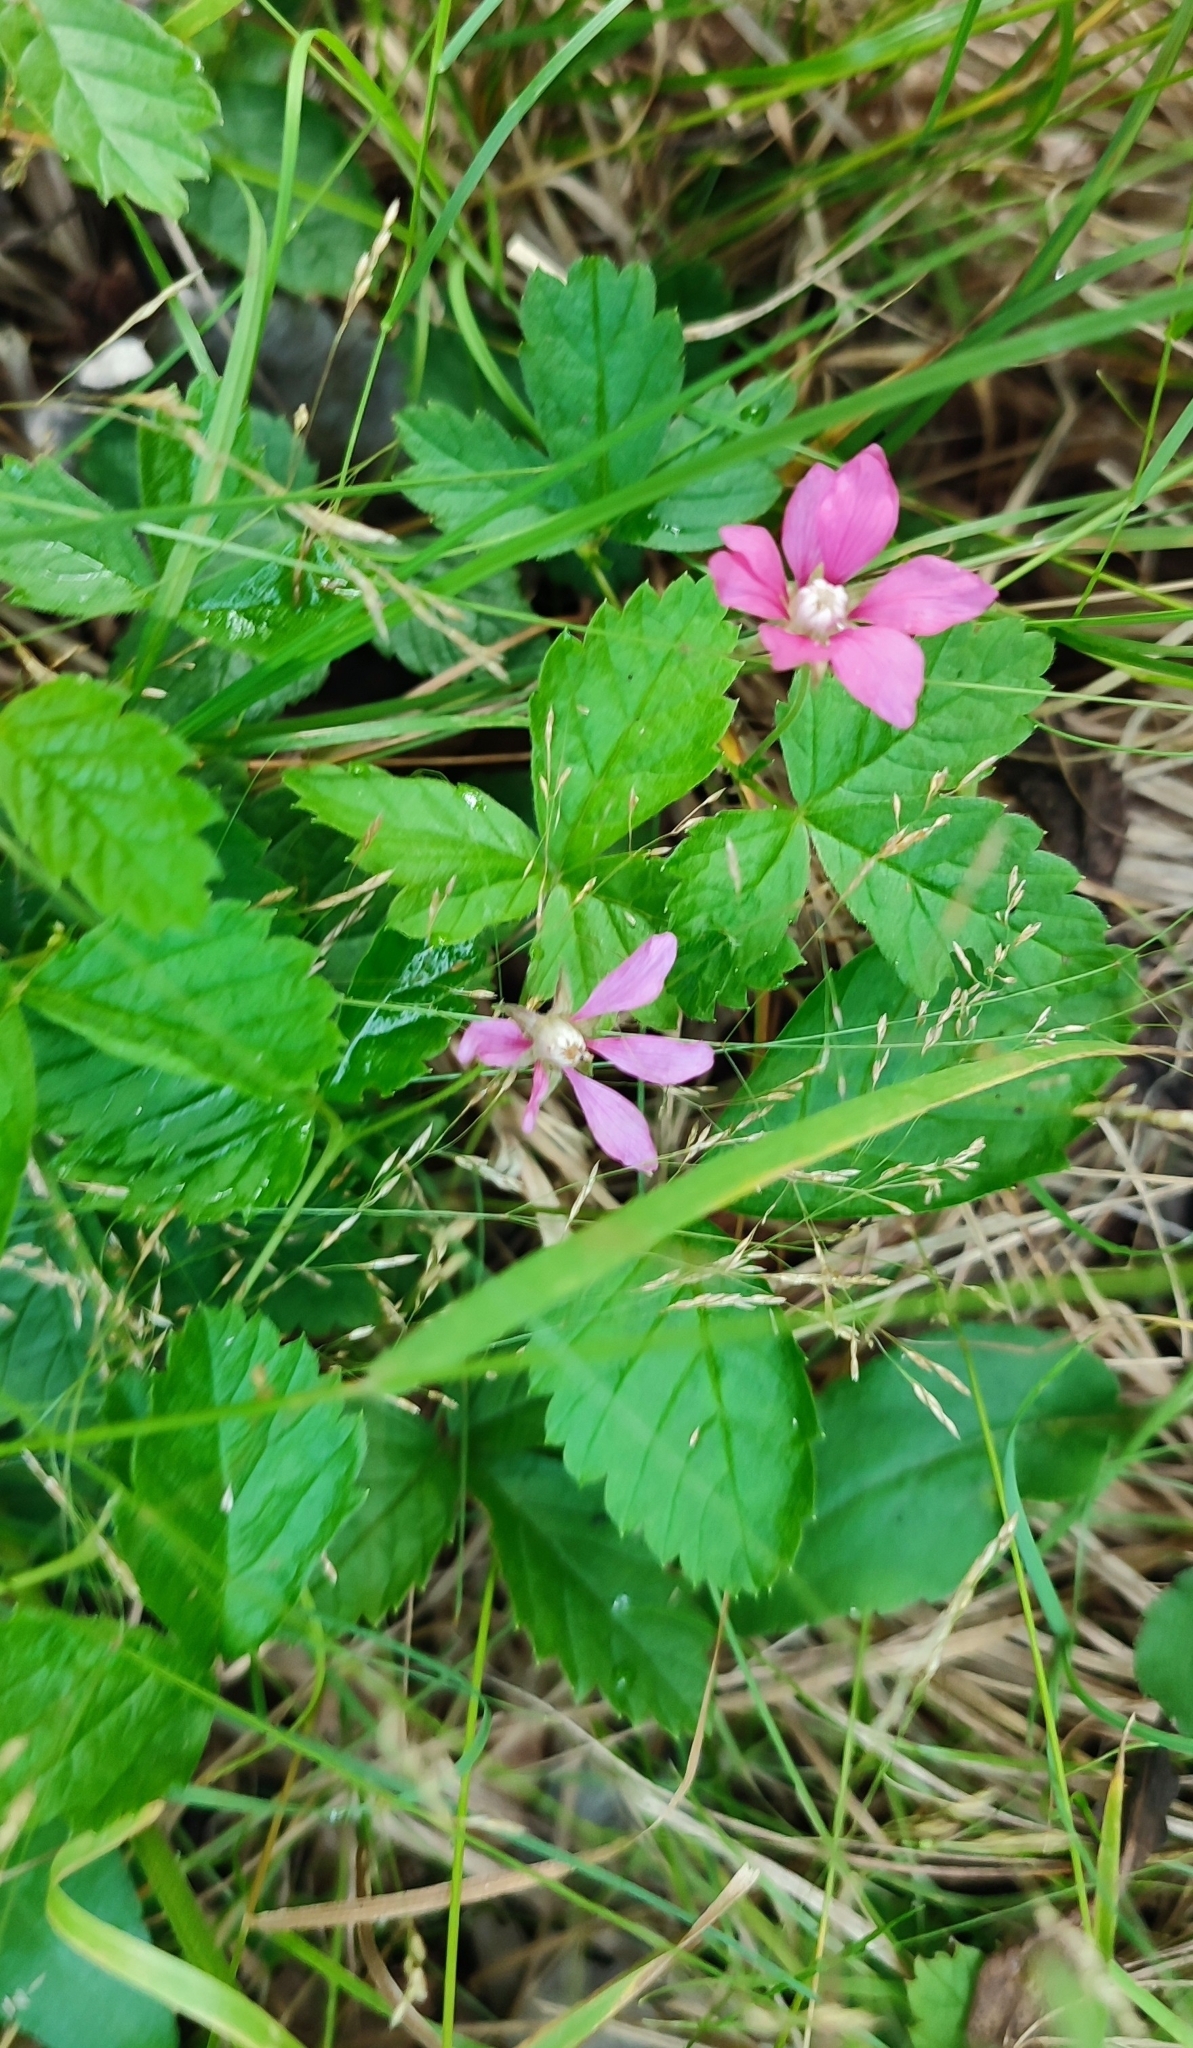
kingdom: Plantae
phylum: Tracheophyta
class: Magnoliopsida
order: Rosales
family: Rosaceae
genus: Rubus
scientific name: Rubus arcticus
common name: Arctic bramble
